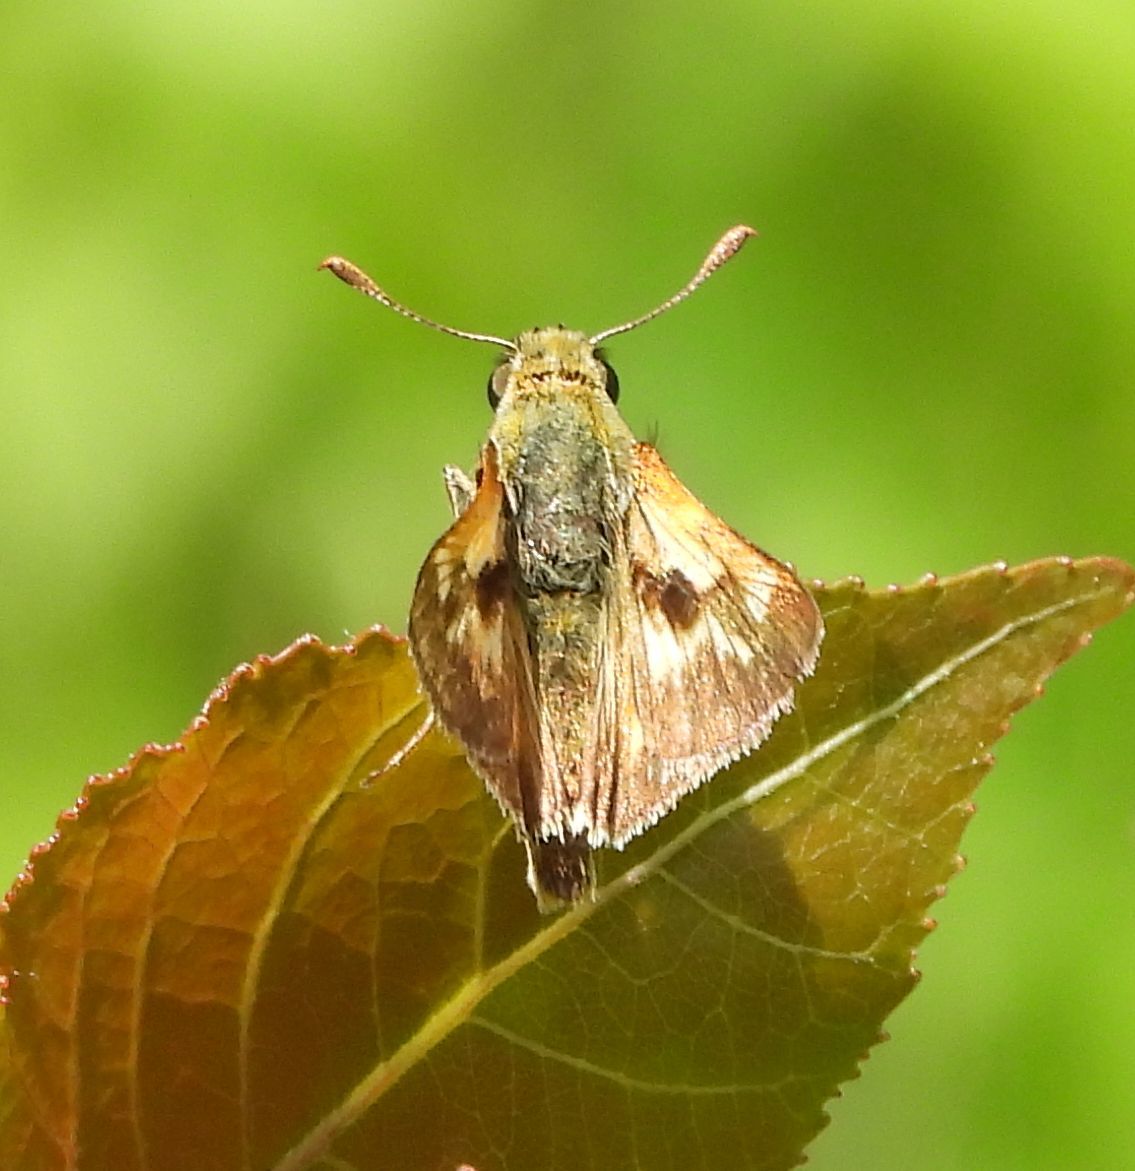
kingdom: Animalia
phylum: Arthropoda
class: Insecta
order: Lepidoptera
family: Hesperiidae
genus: Polites
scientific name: Polites mystic
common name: Long dash
